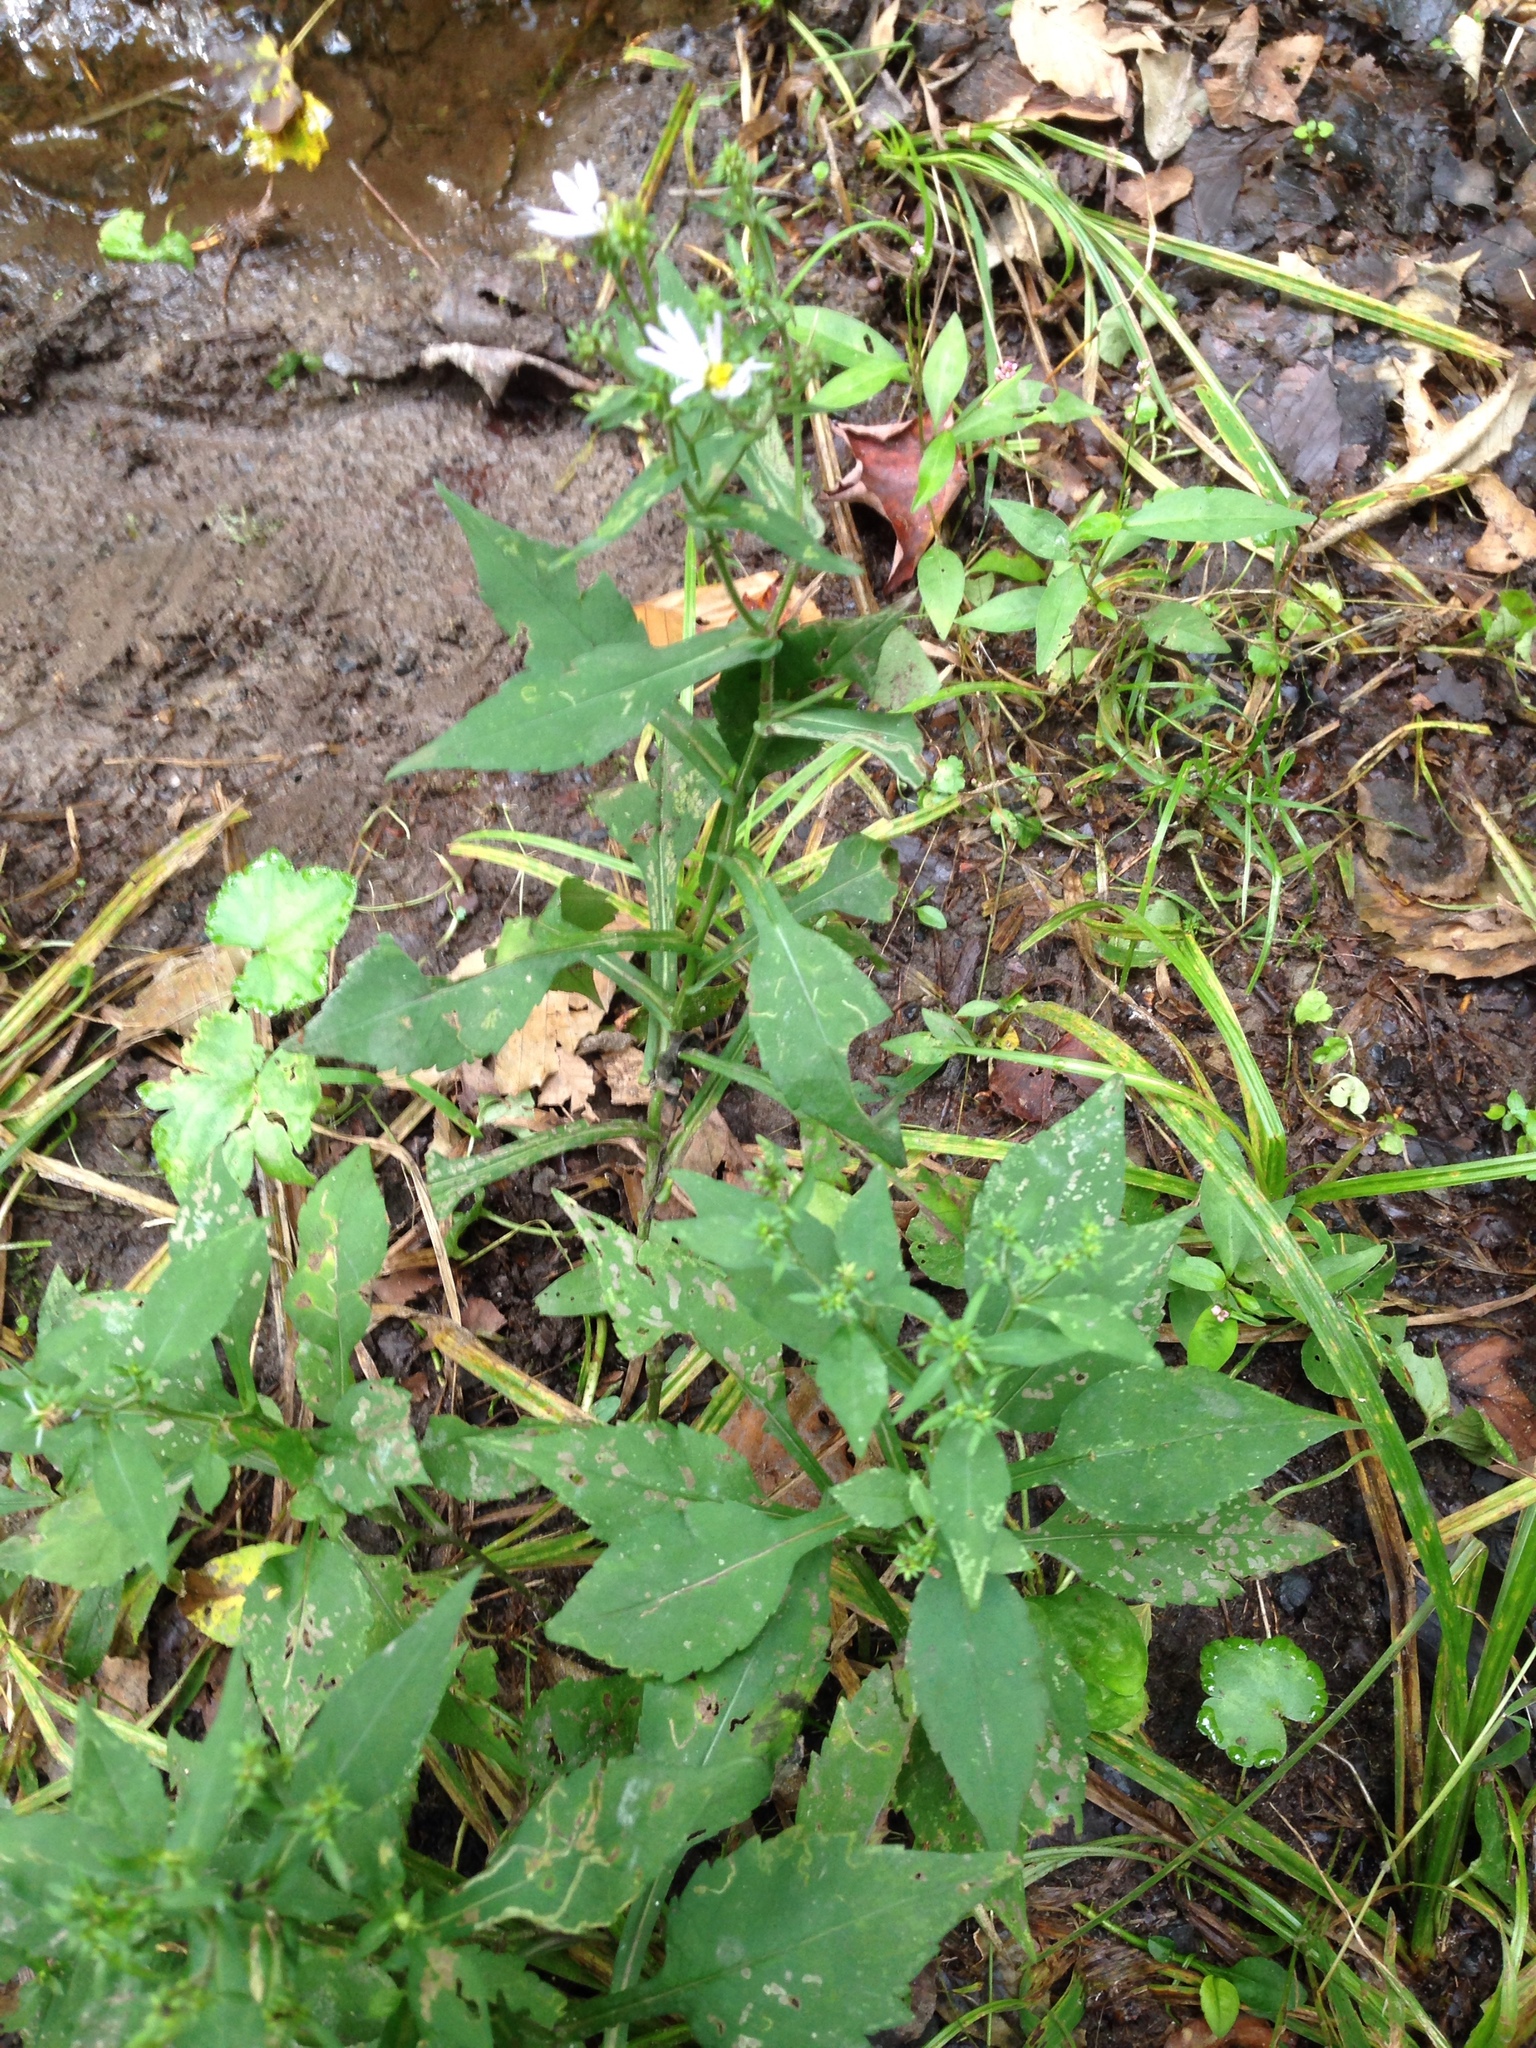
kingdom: Plantae
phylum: Tracheophyta
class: Magnoliopsida
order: Asterales
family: Asteraceae
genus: Symphyotrichum
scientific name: Symphyotrichum prenanthoides
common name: Crooked-stem aster
